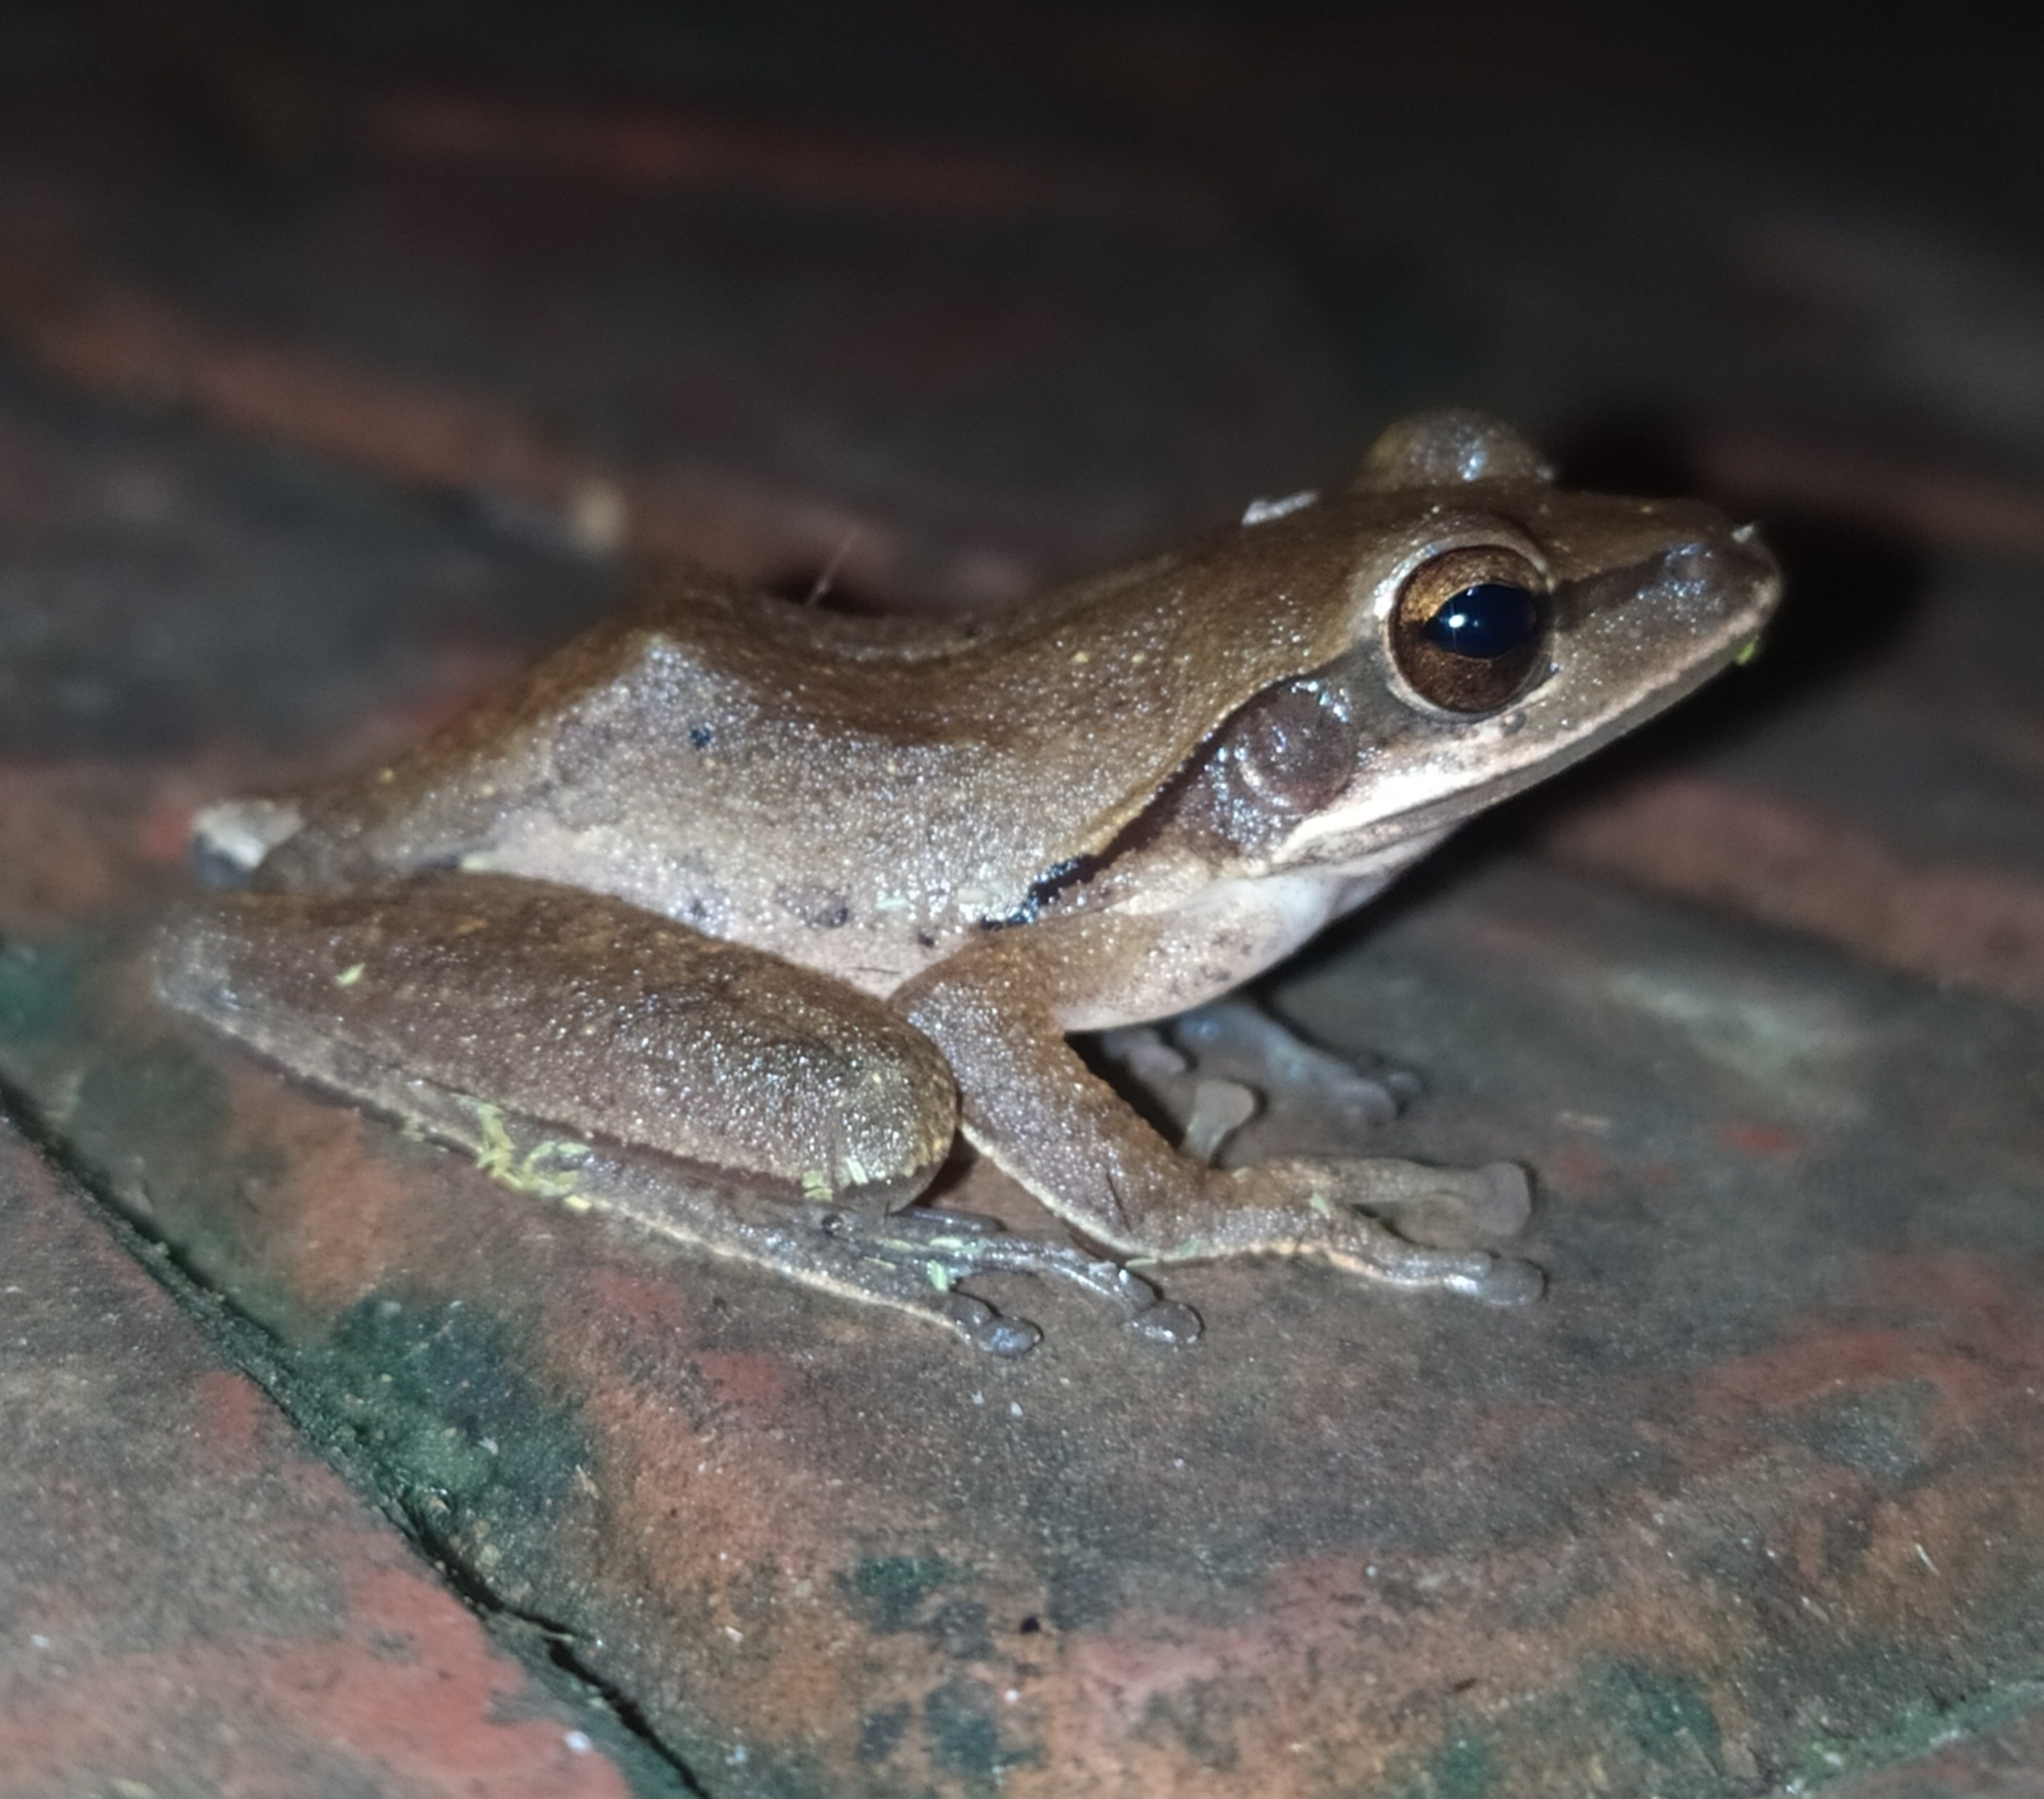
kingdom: Animalia
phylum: Chordata
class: Amphibia
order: Anura
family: Rhacophoridae
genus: Polypedates
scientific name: Polypedates maculatus
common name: Himalayan tree frog
